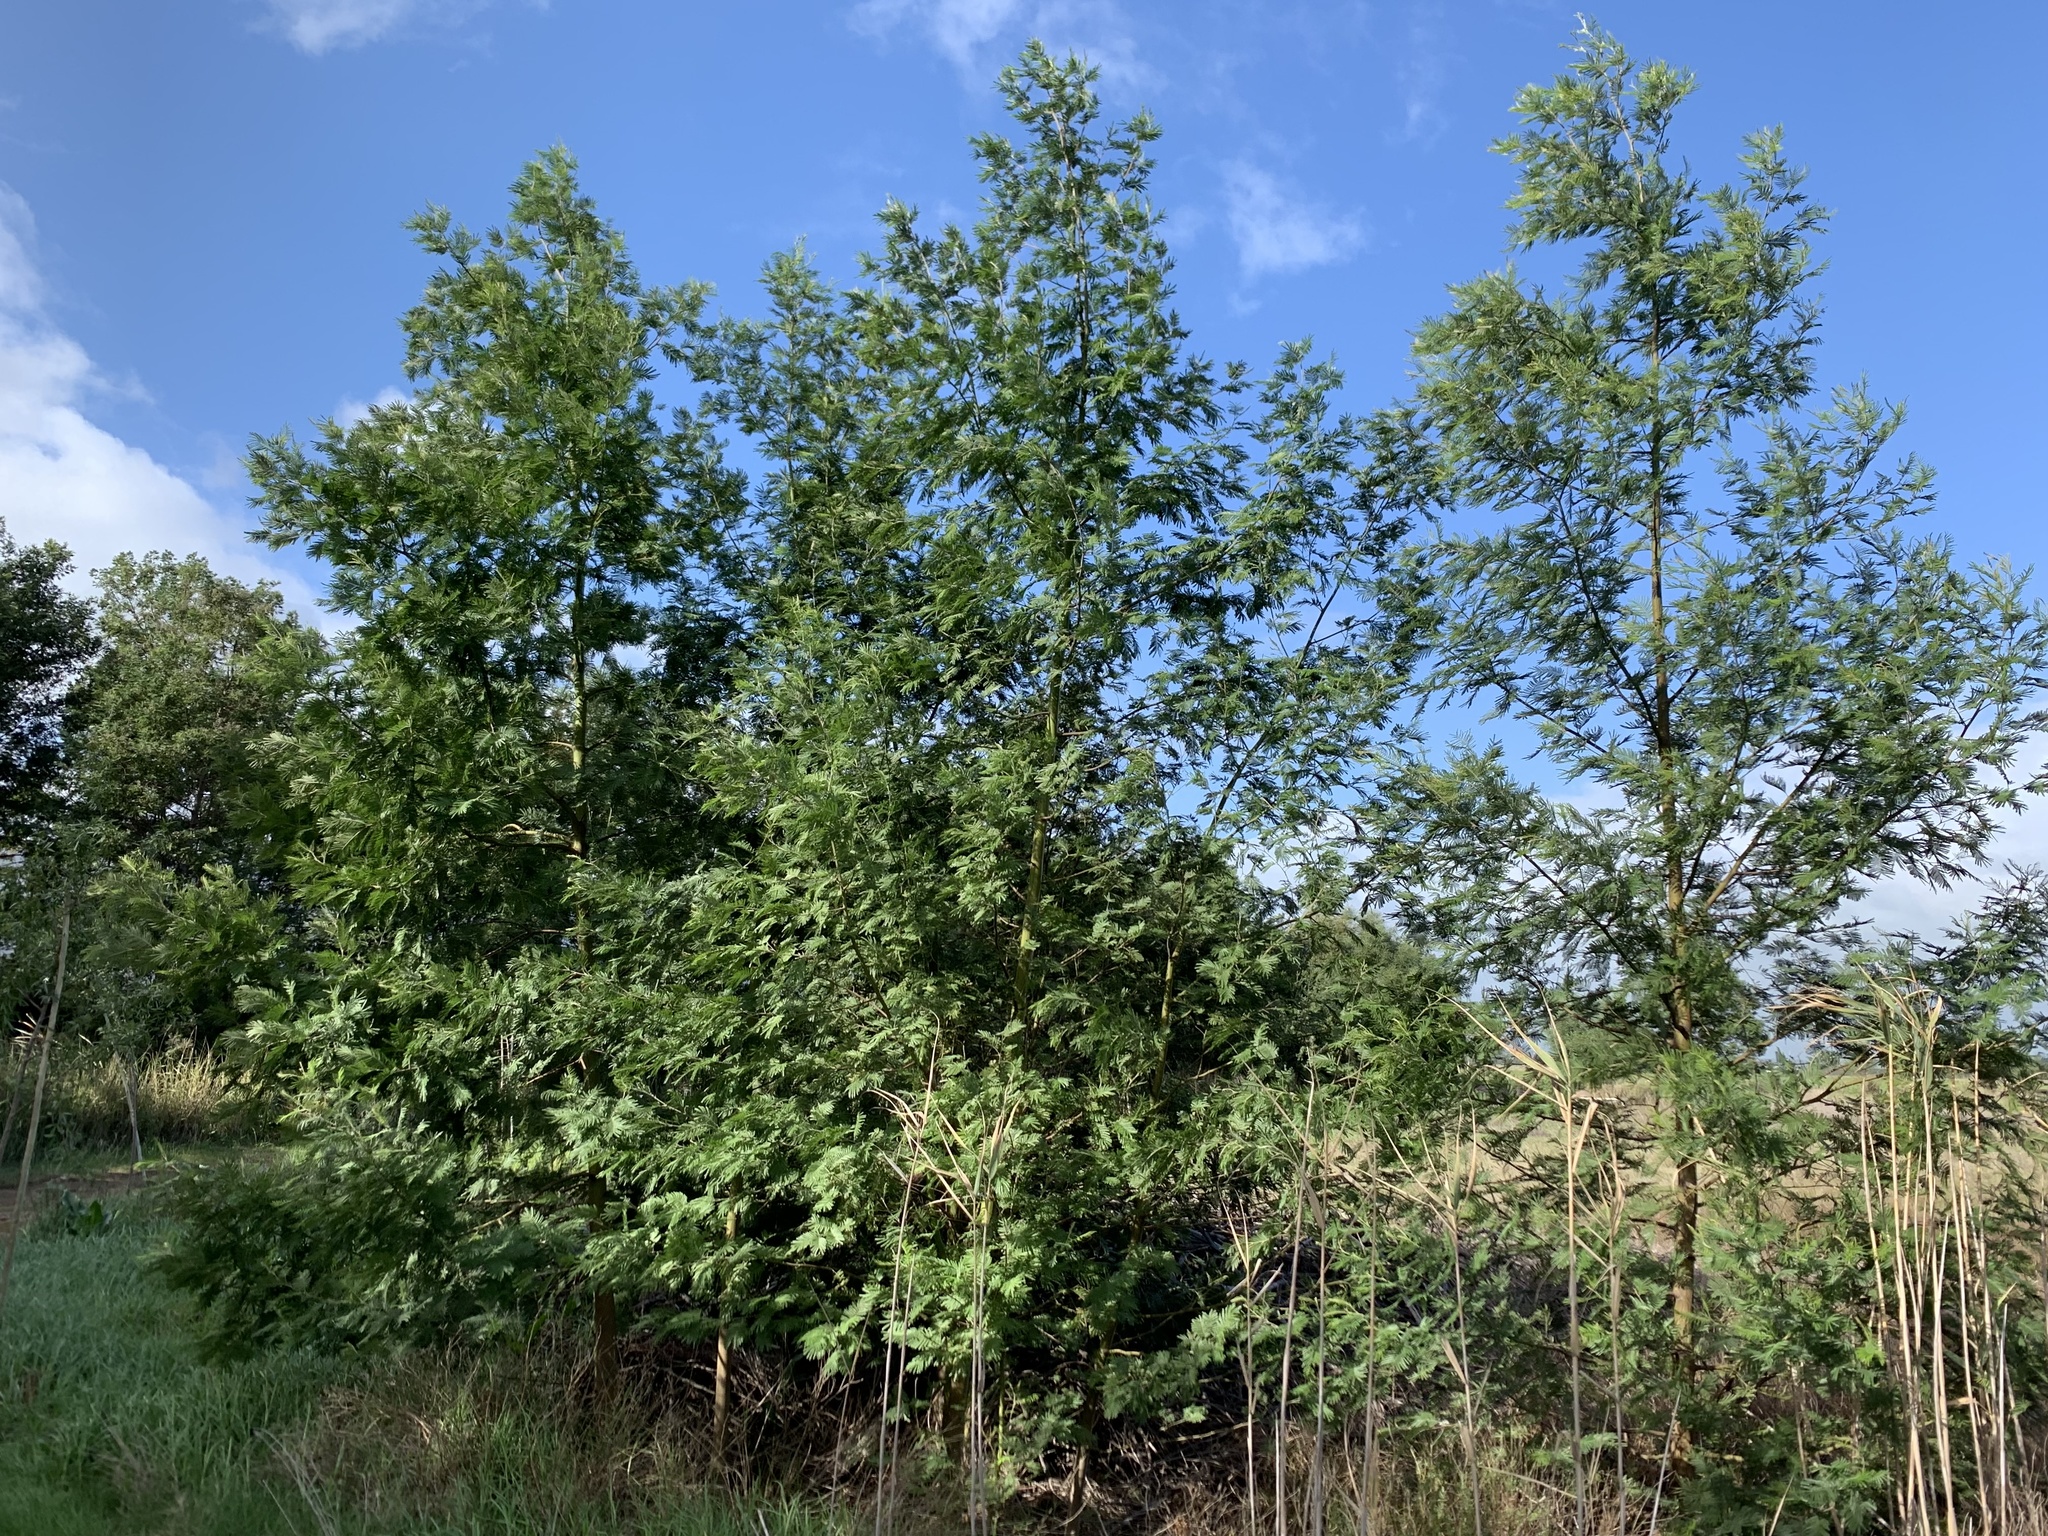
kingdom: Plantae
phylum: Tracheophyta
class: Magnoliopsida
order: Fabales
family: Fabaceae
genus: Acacia
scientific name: Acacia mearnsii
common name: Black wattle
